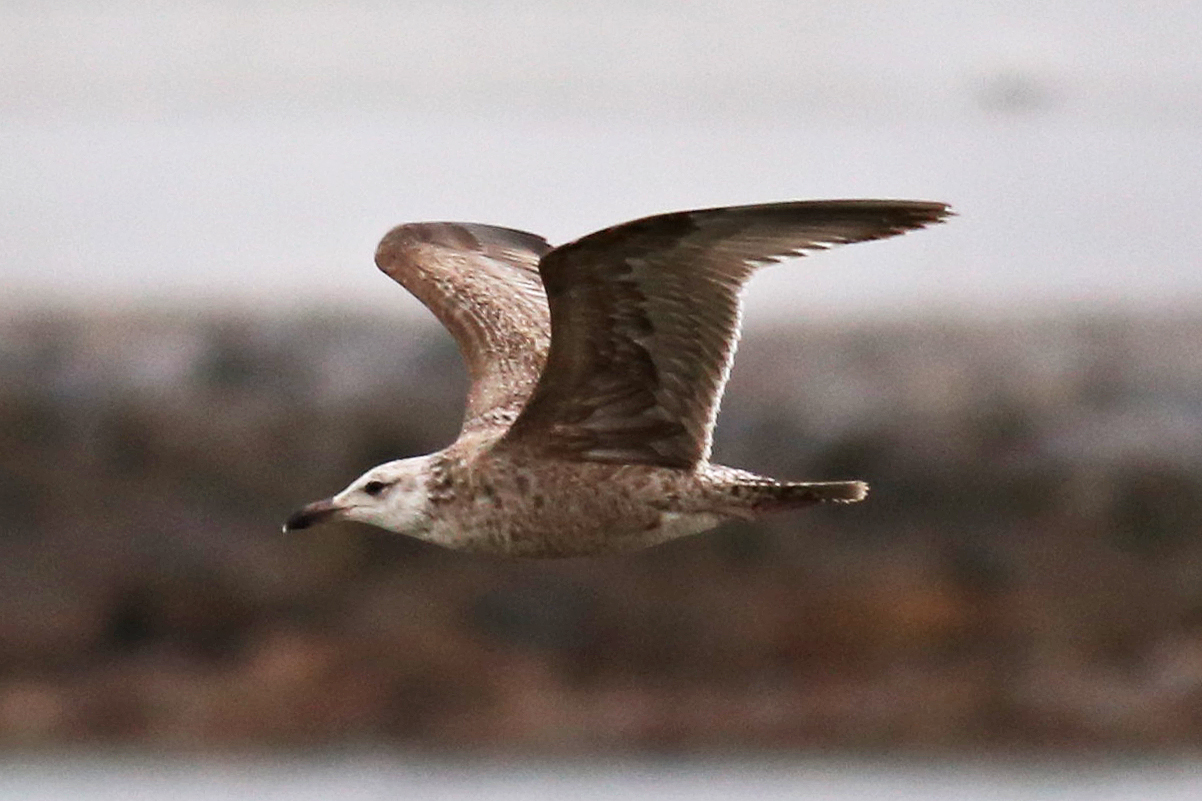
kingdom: Animalia
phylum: Chordata
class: Aves
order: Charadriiformes
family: Laridae
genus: Larus
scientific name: Larus argentatus
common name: Herring gull
